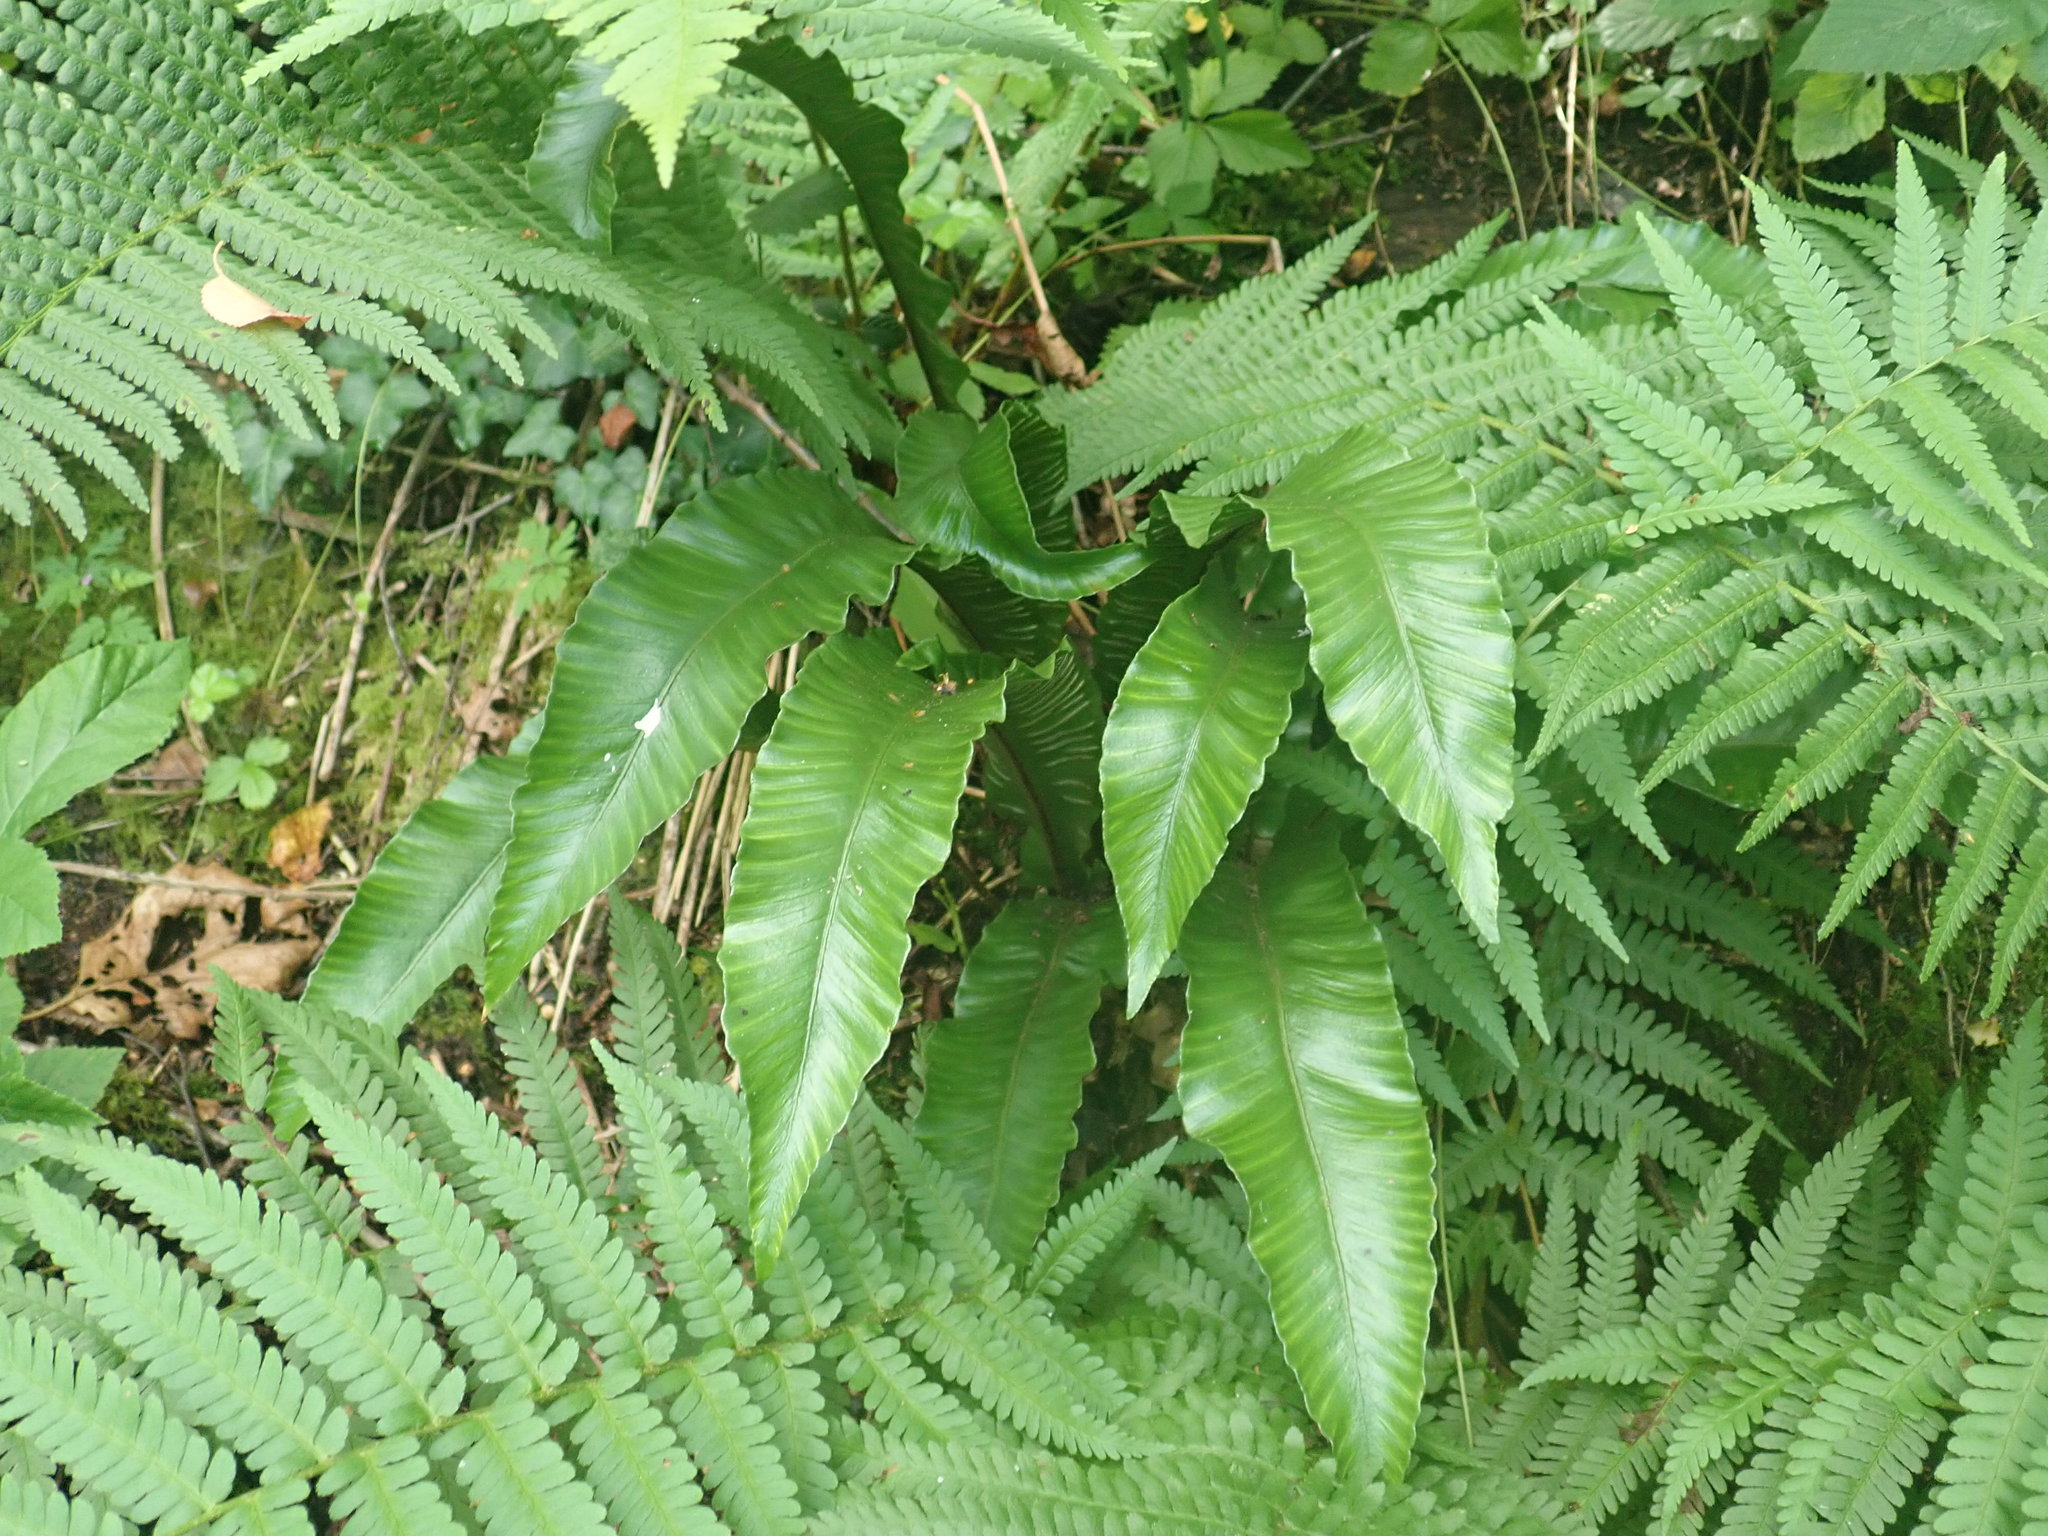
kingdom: Plantae
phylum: Tracheophyta
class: Polypodiopsida
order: Polypodiales
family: Aspleniaceae
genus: Asplenium
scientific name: Asplenium scolopendrium
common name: Hart's-tongue fern
